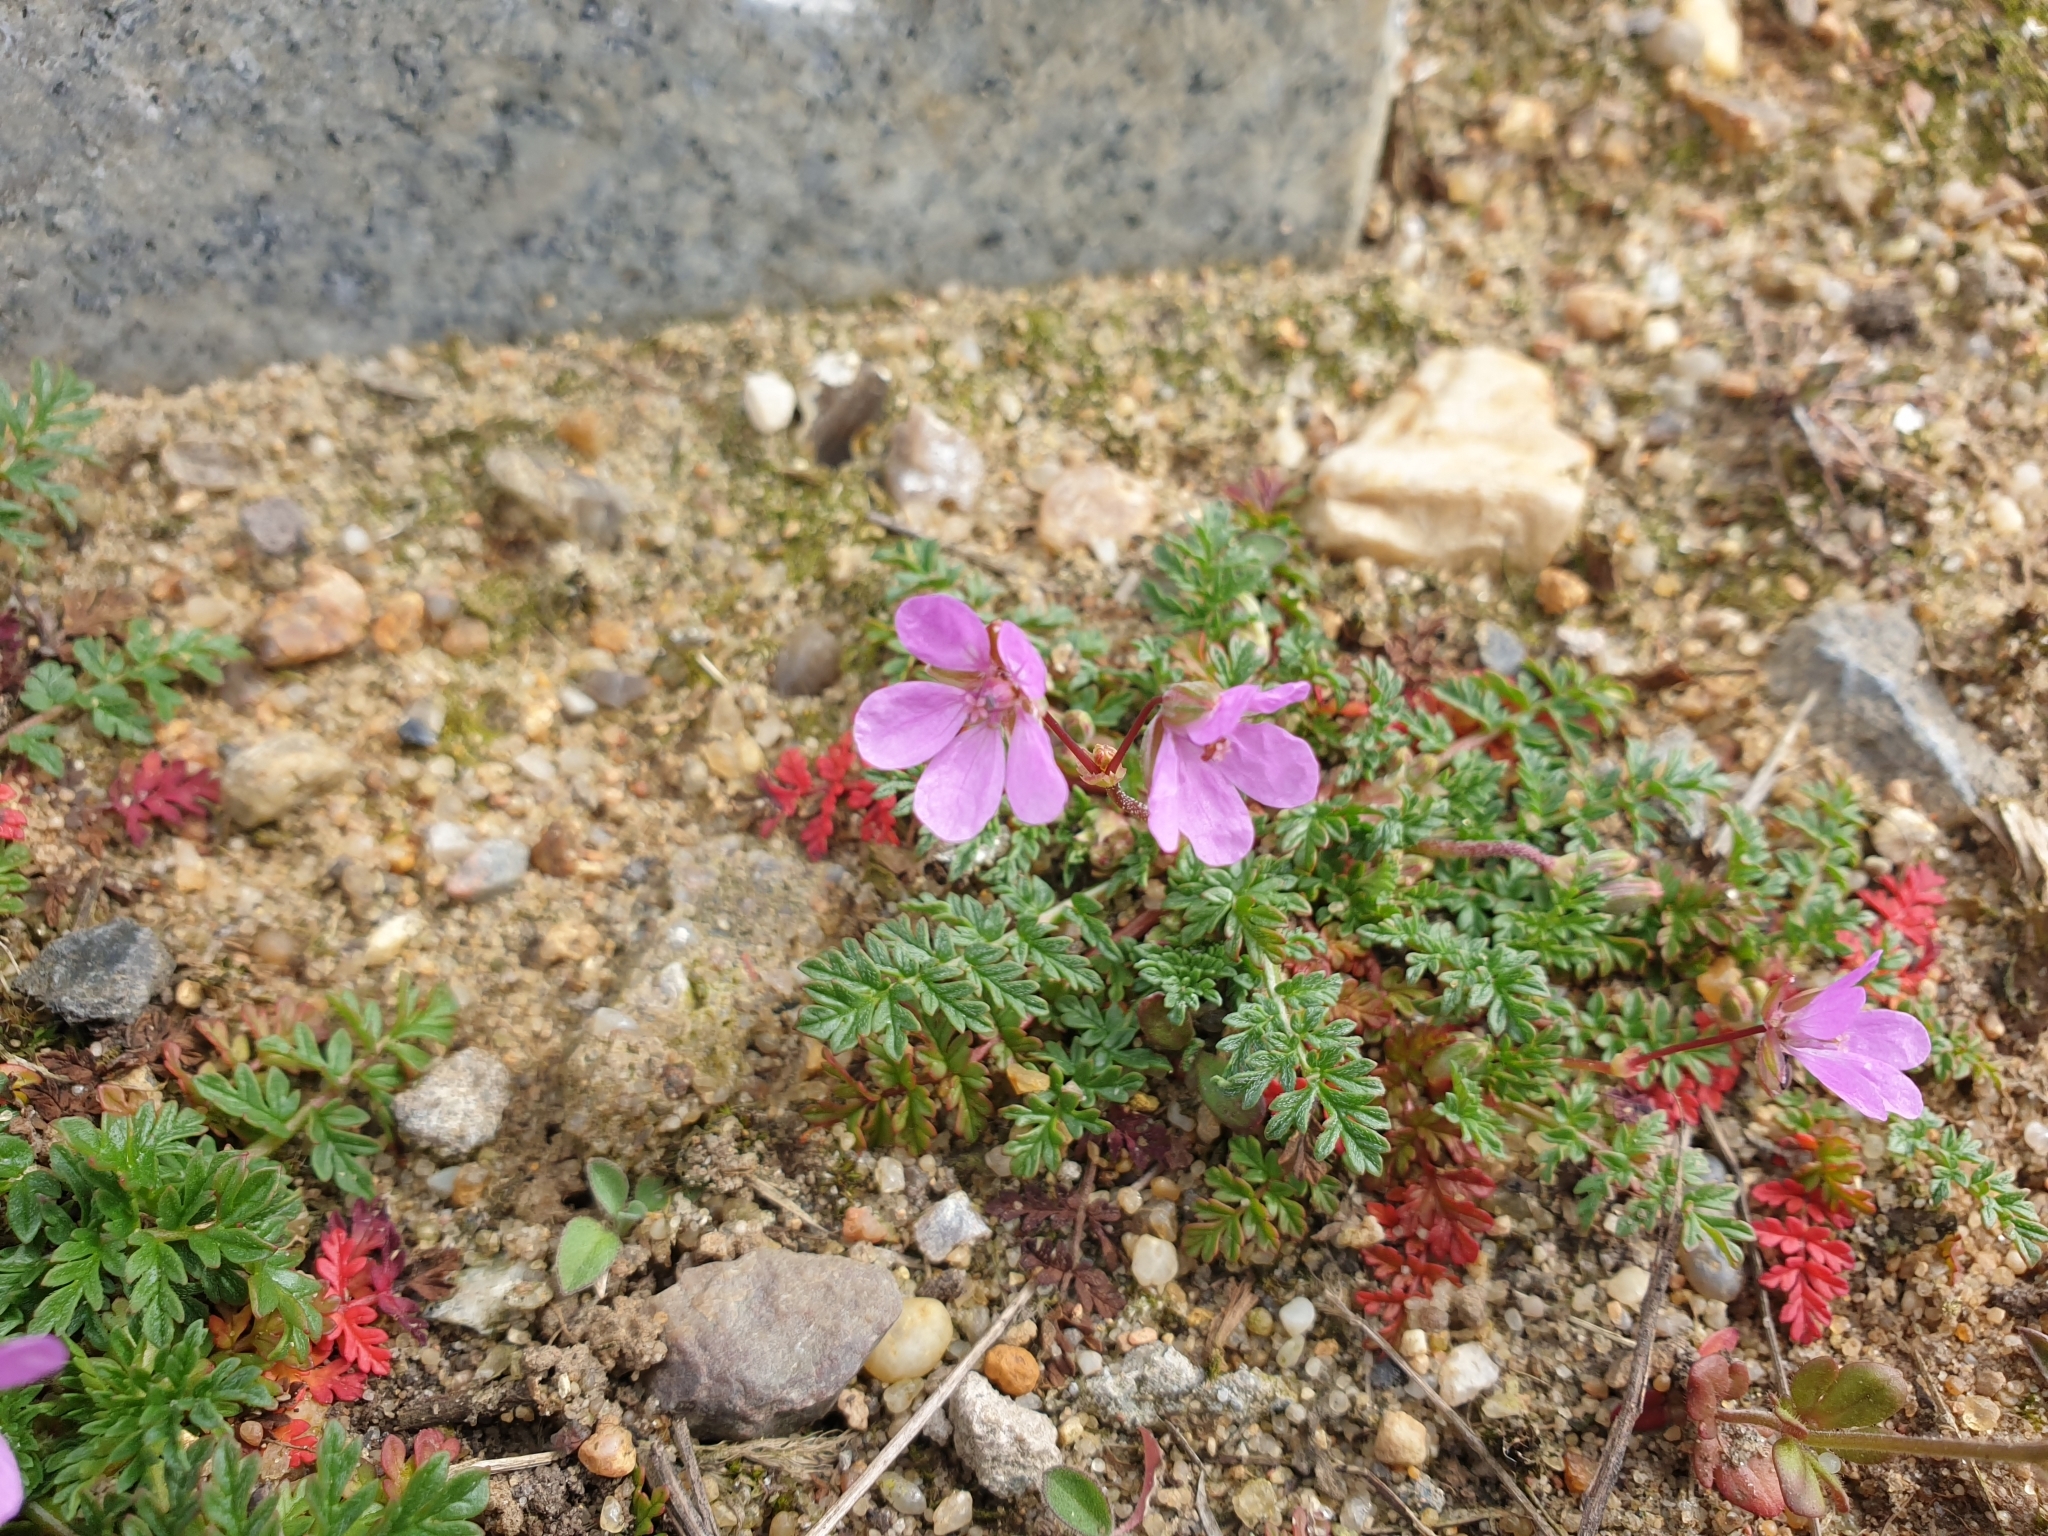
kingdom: Plantae
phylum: Tracheophyta
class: Magnoliopsida
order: Geraniales
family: Geraniaceae
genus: Erodium
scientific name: Erodium cicutarium
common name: Common stork's-bill
